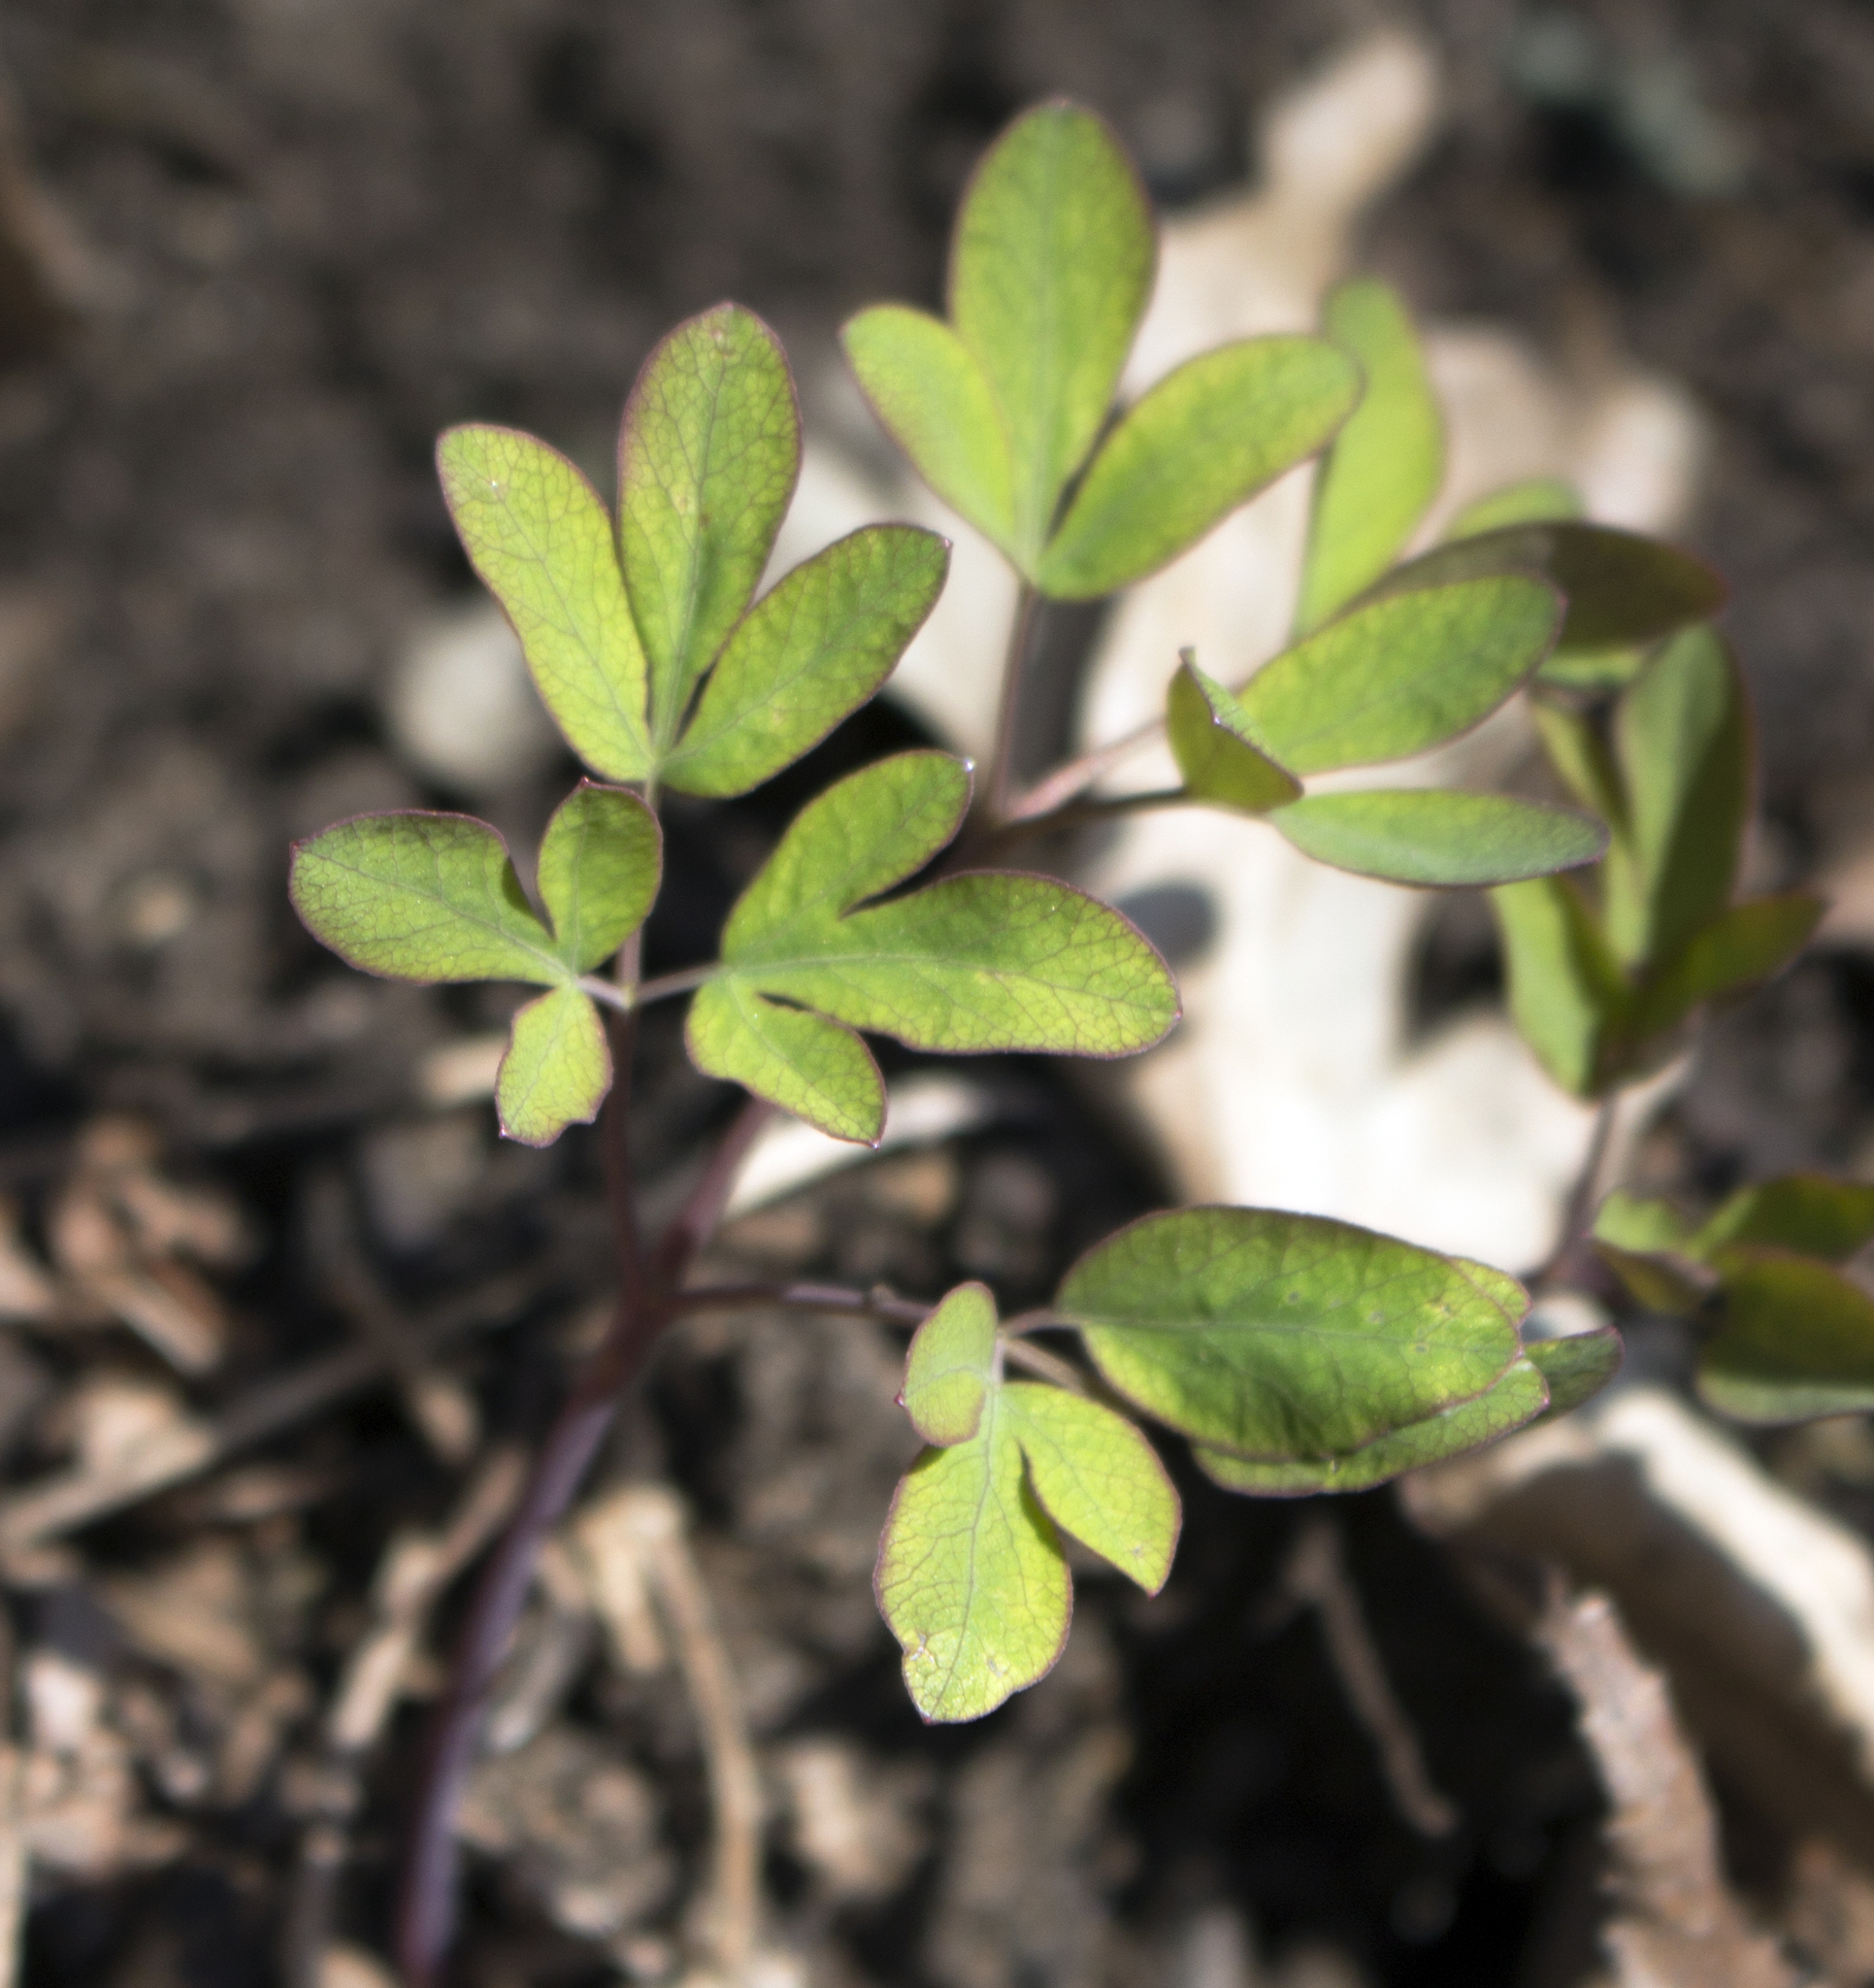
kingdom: Plantae
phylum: Tracheophyta
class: Magnoliopsida
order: Apiales
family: Apiaceae
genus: Taenidia
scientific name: Taenidia integerrima
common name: Golden alexander
